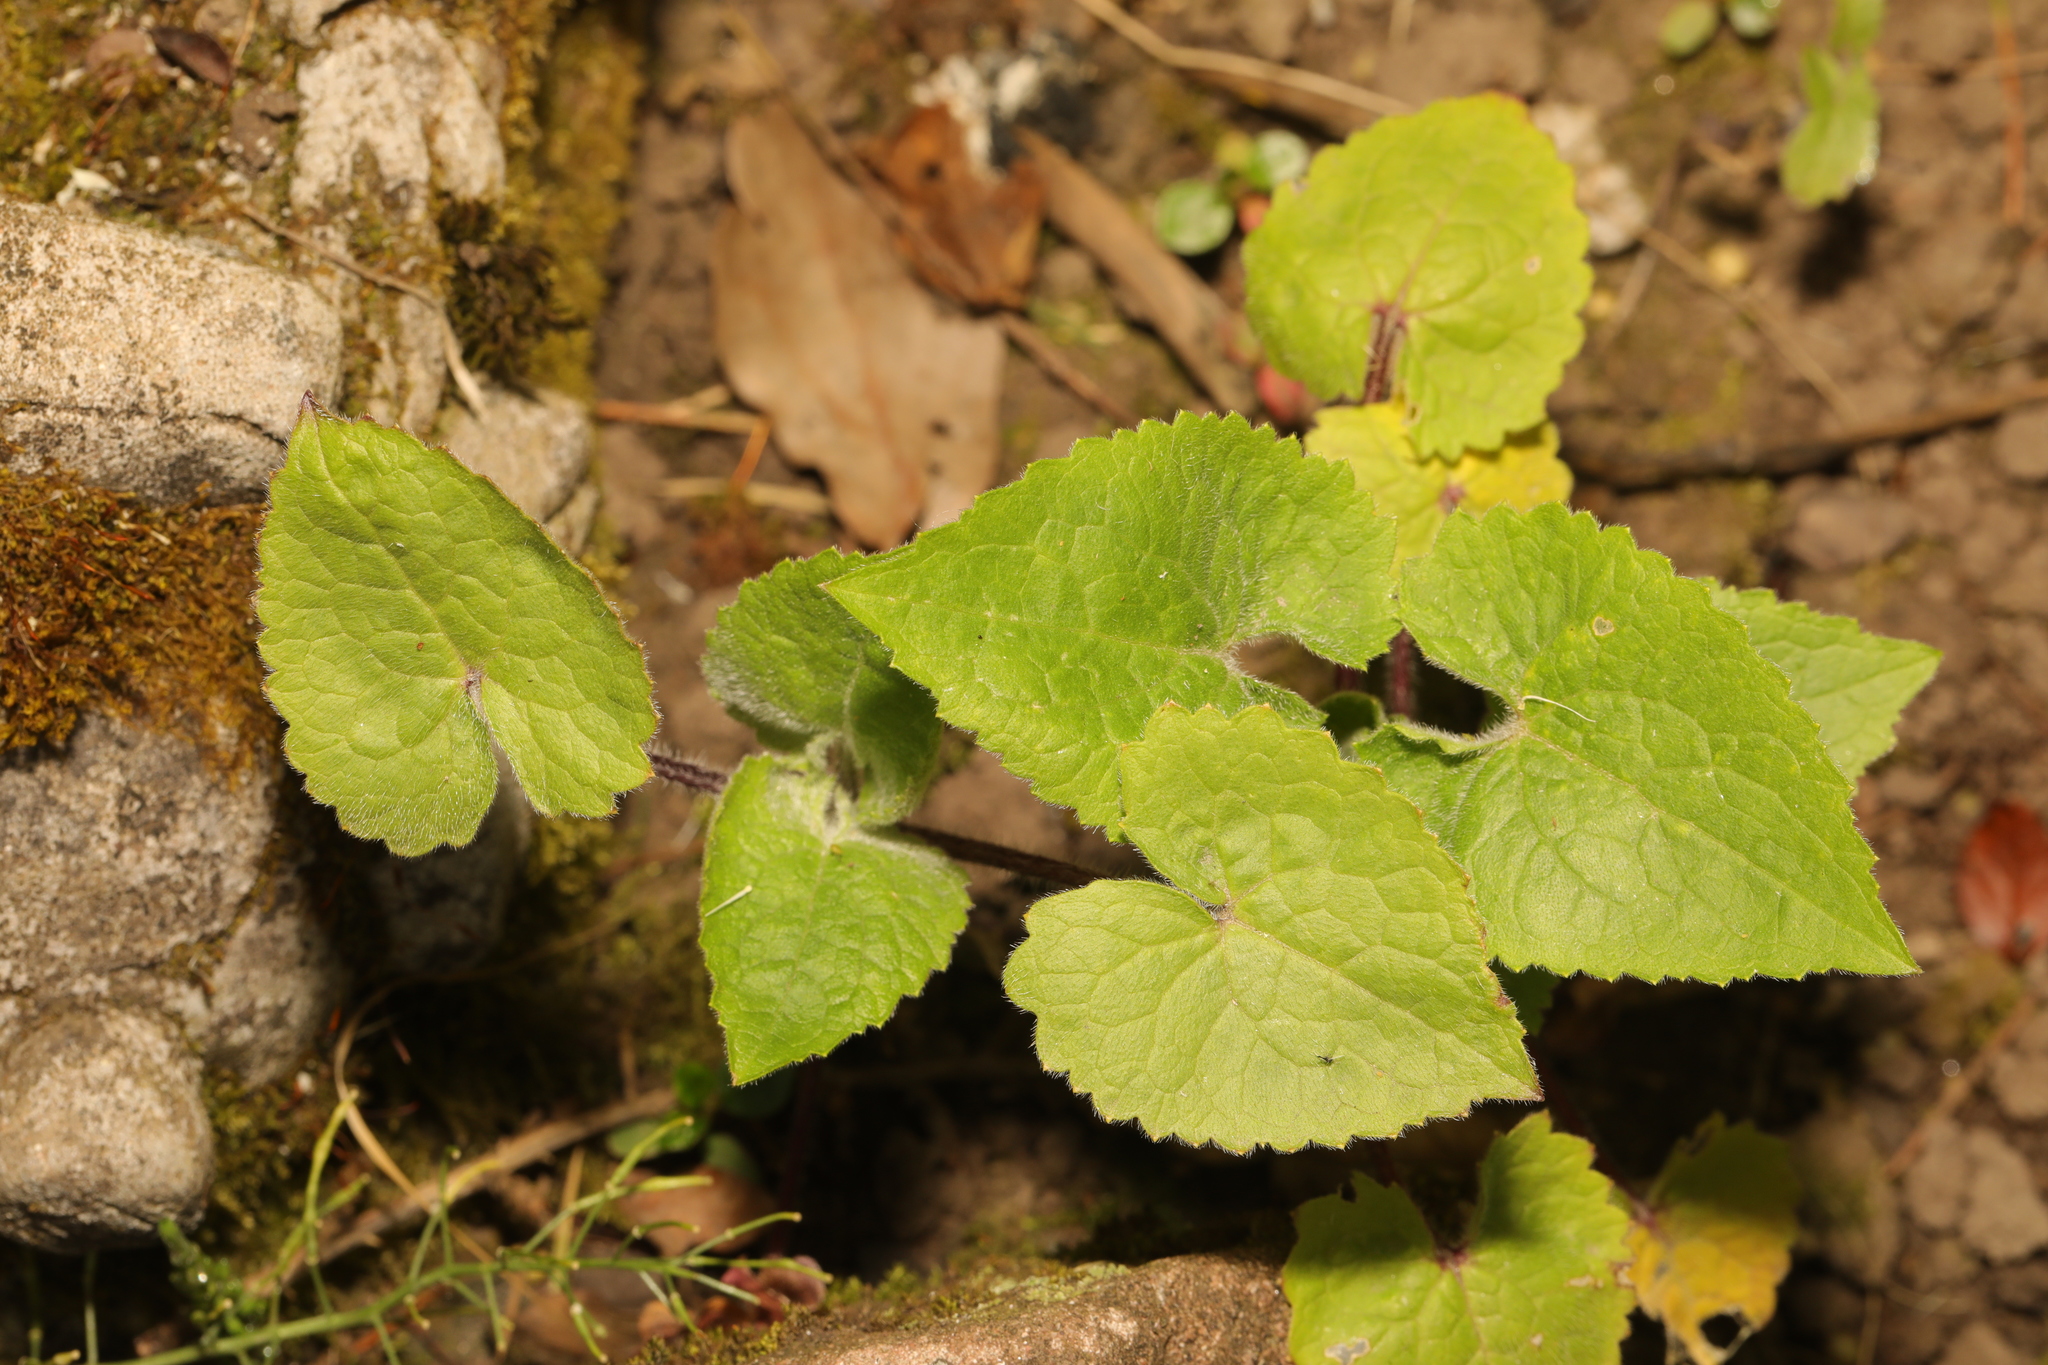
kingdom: Plantae
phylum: Tracheophyta
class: Magnoliopsida
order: Brassicales
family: Brassicaceae
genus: Lunaria
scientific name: Lunaria annua
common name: Honesty
